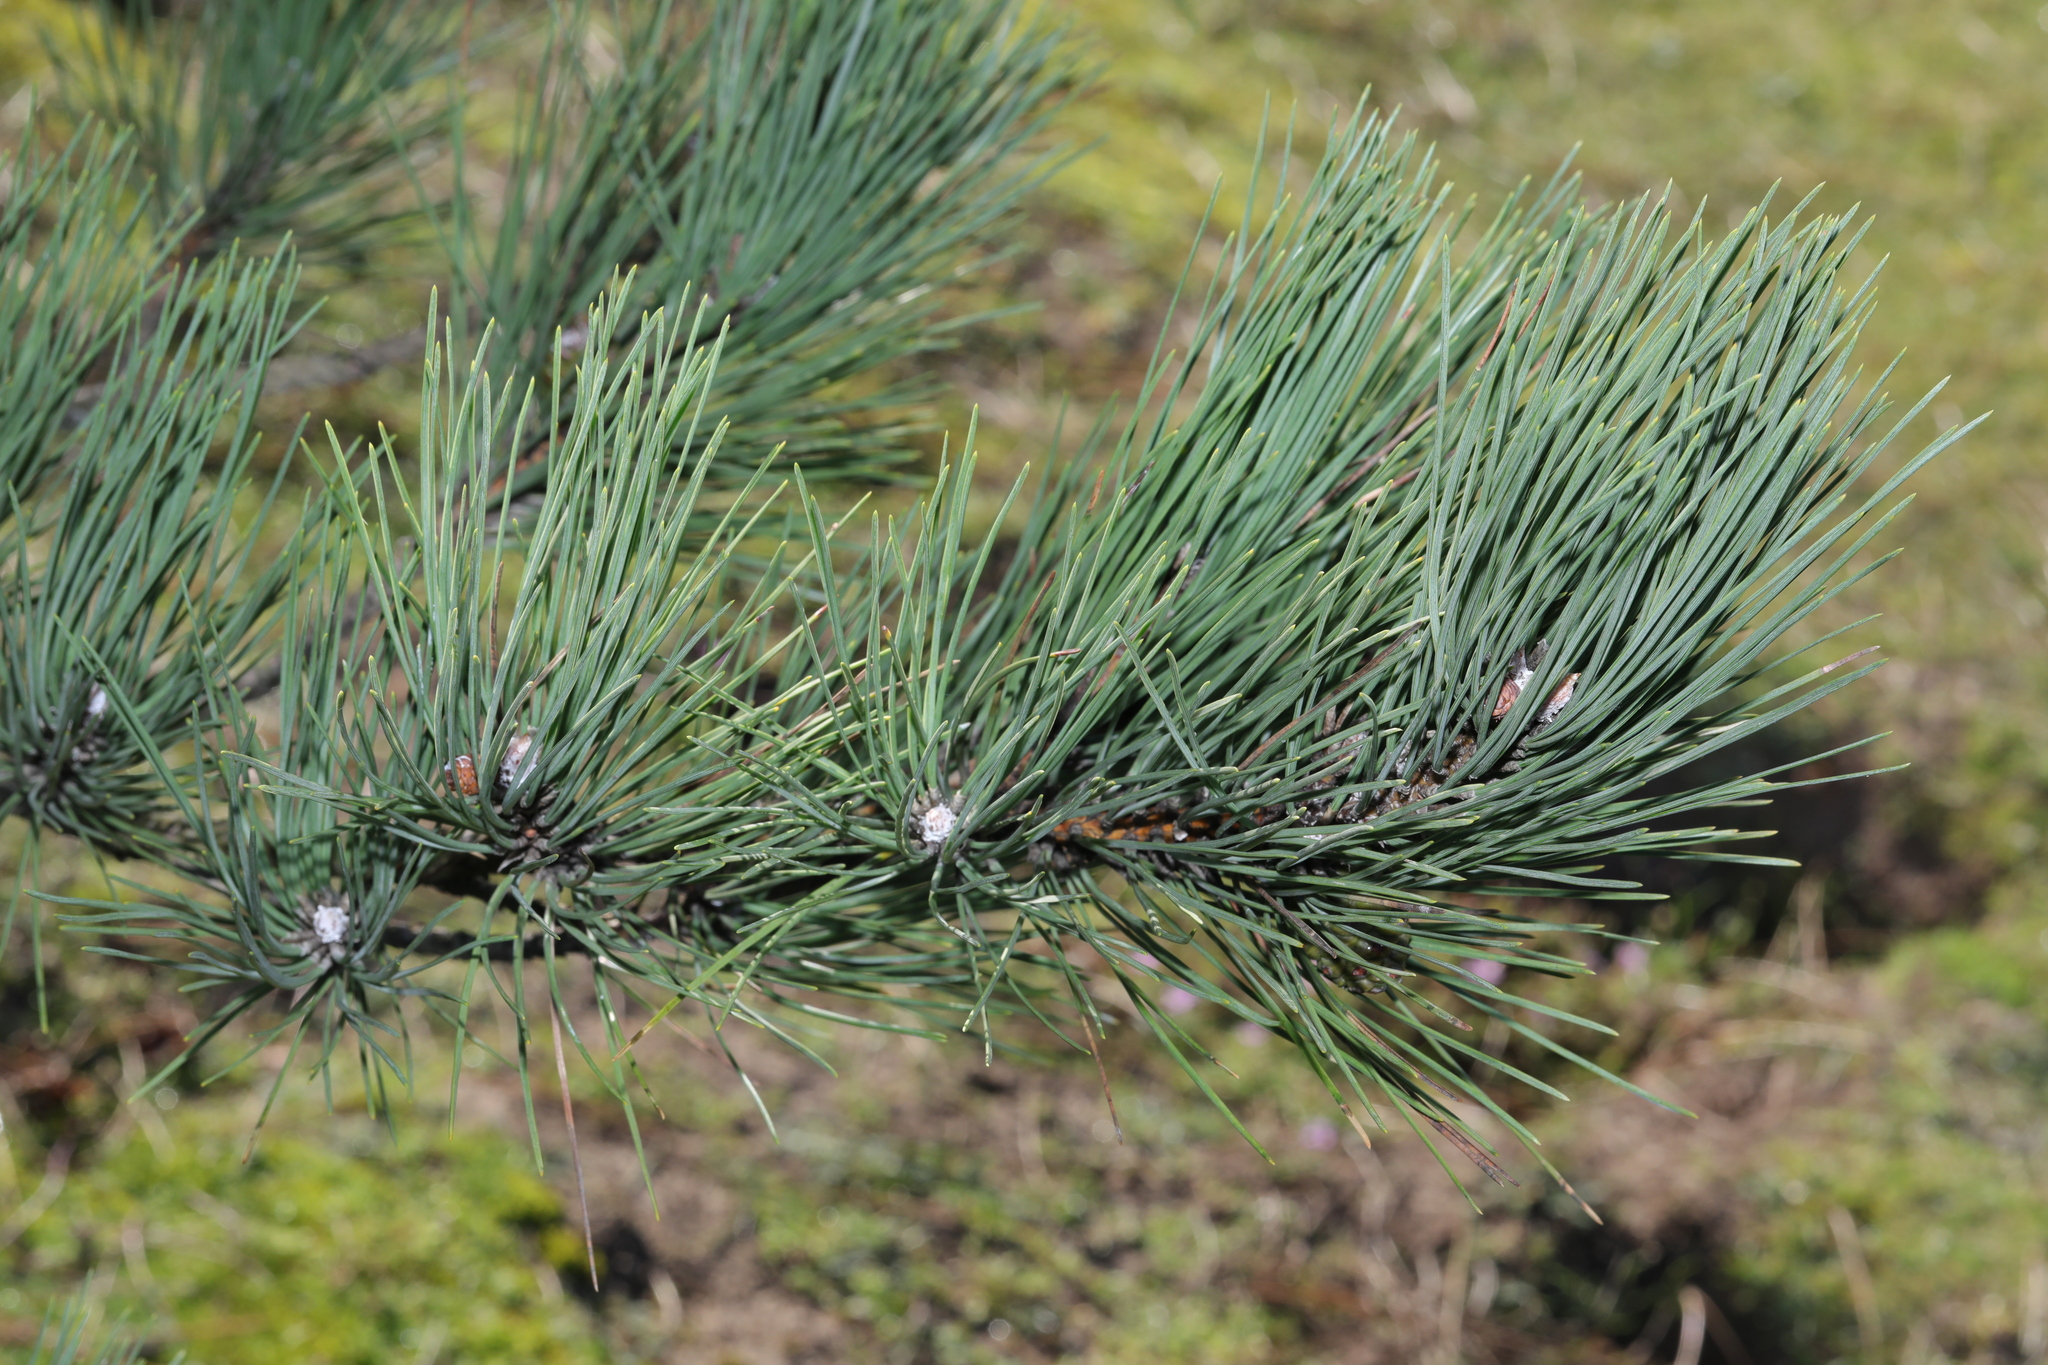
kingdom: Plantae
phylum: Tracheophyta
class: Pinopsida
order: Pinales
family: Pinaceae
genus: Pinus
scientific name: Pinus sylvestris
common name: Scots pine
